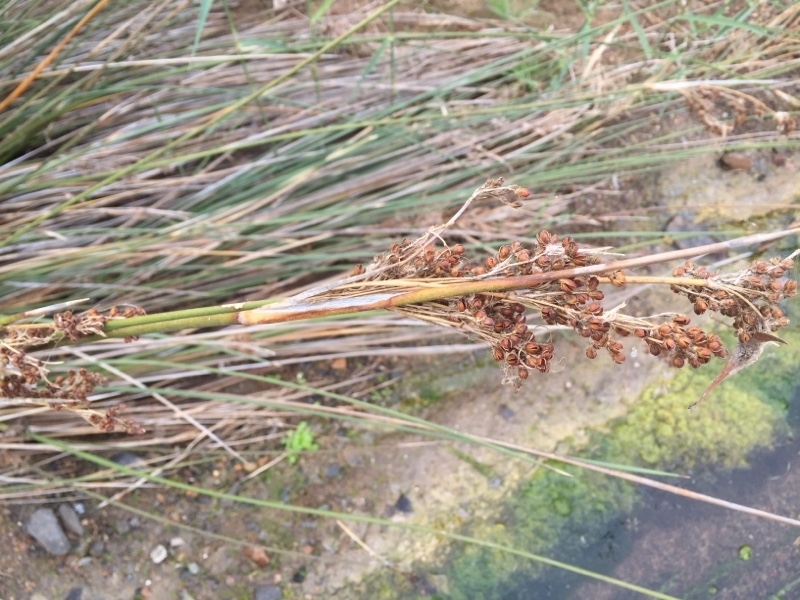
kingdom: Plantae
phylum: Tracheophyta
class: Liliopsida
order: Poales
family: Juncaceae
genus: Juncus
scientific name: Juncus acutus
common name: Sharp rush
